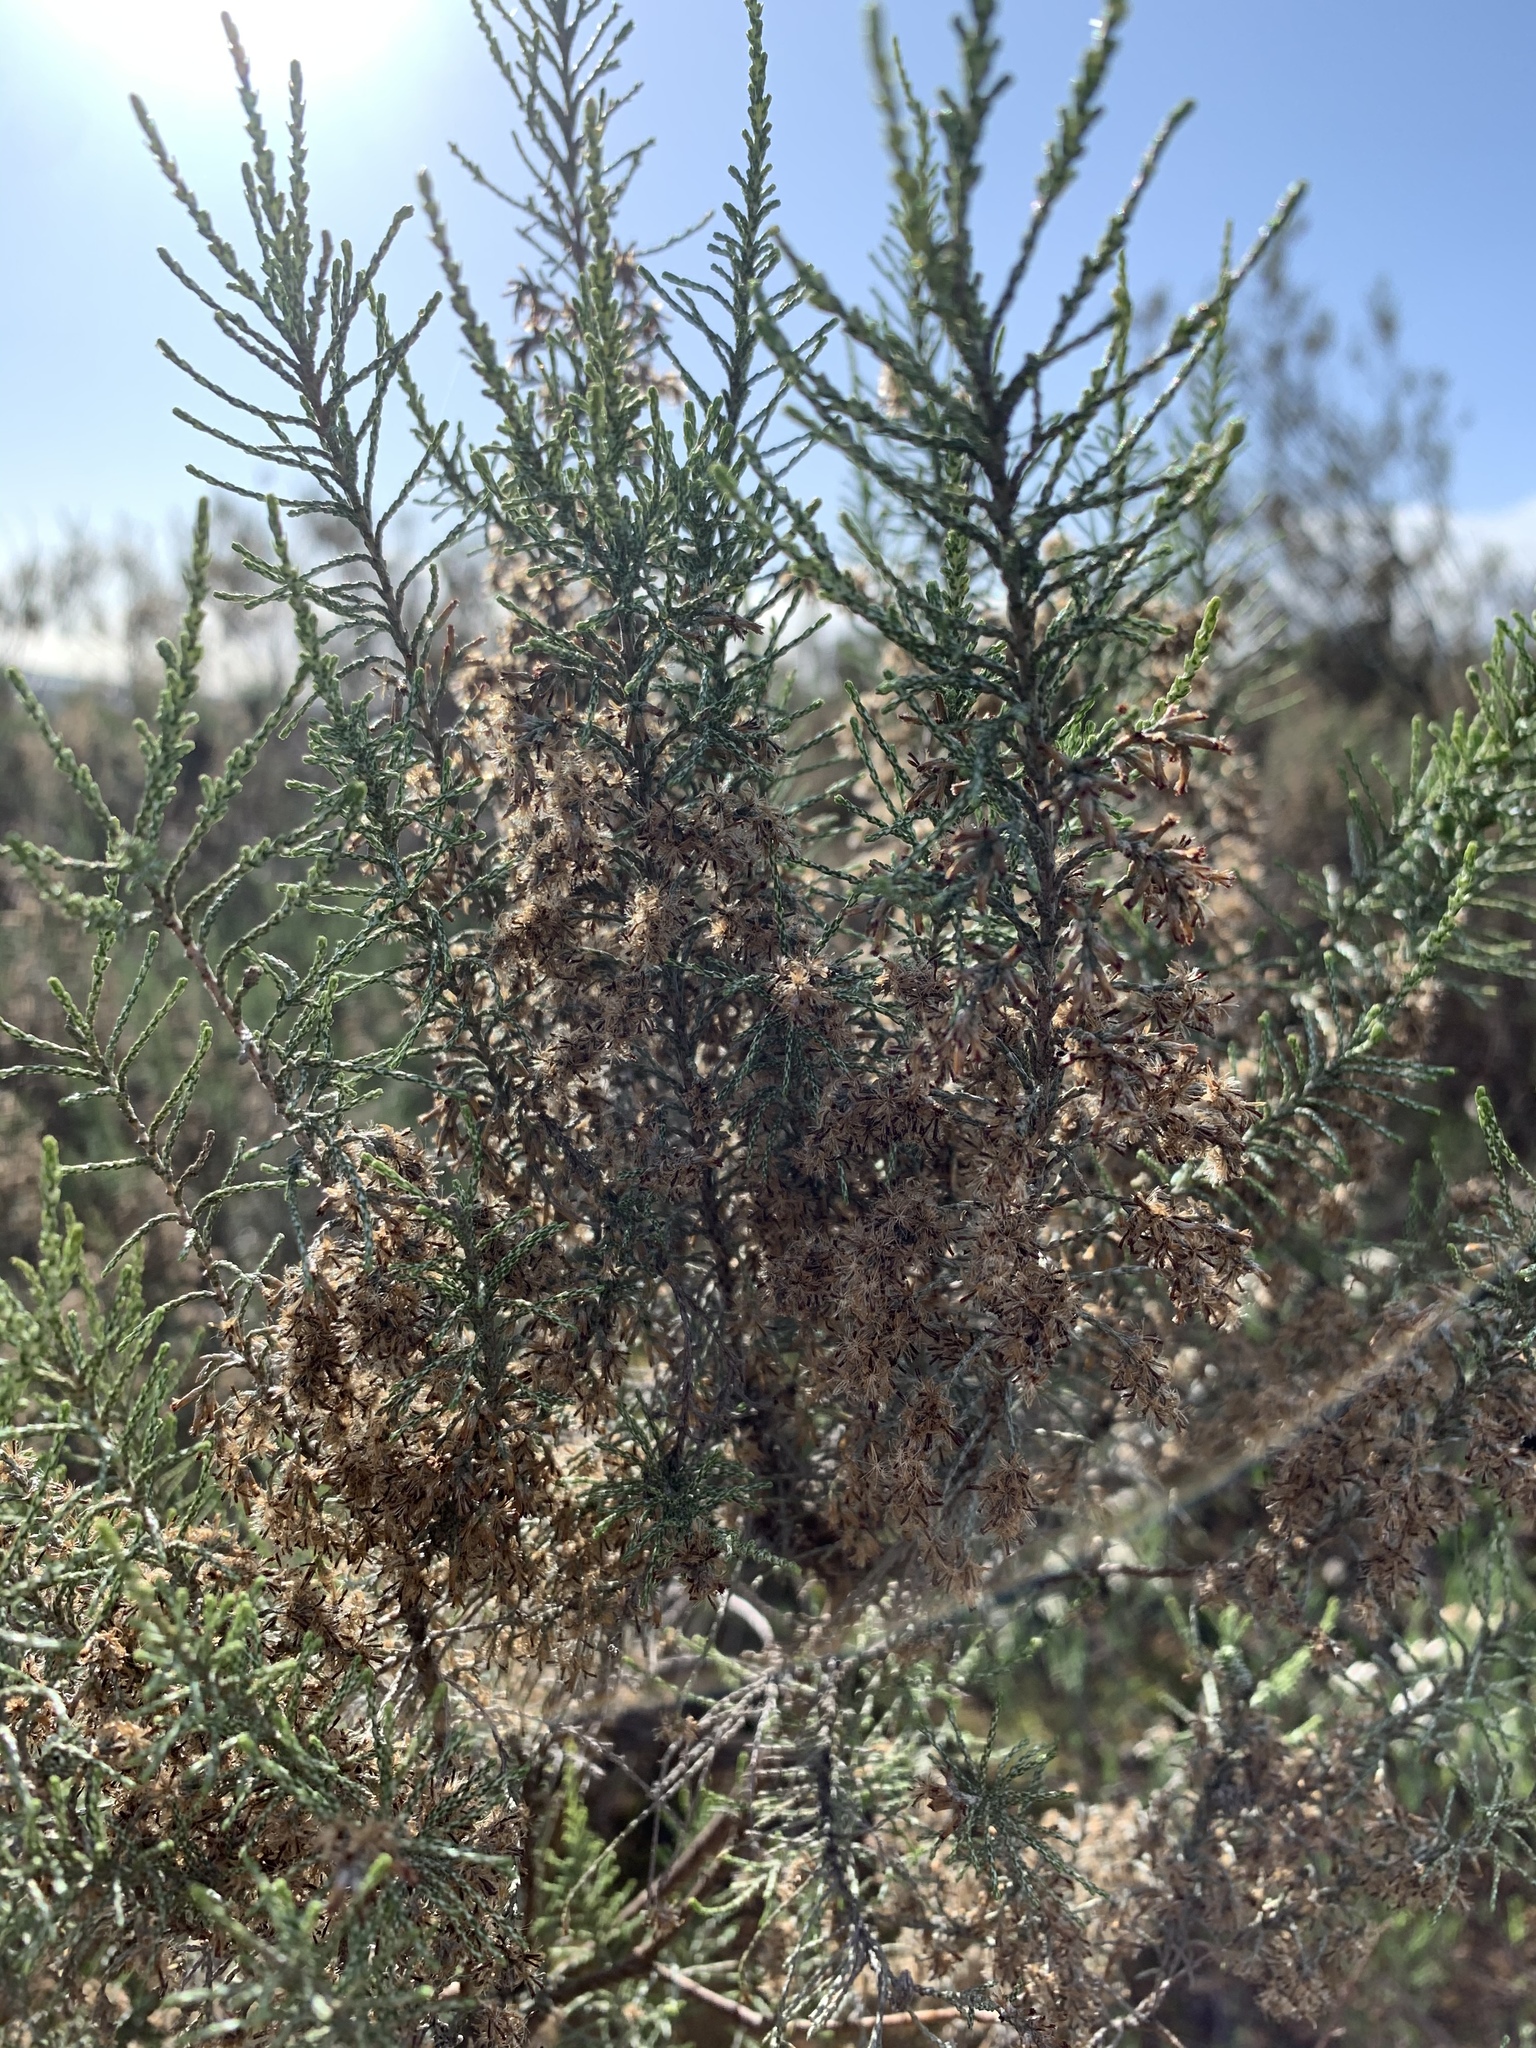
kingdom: Plantae
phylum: Tracheophyta
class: Magnoliopsida
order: Asterales
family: Asteraceae
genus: Dicerothamnus
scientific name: Dicerothamnus rhinocerotis
